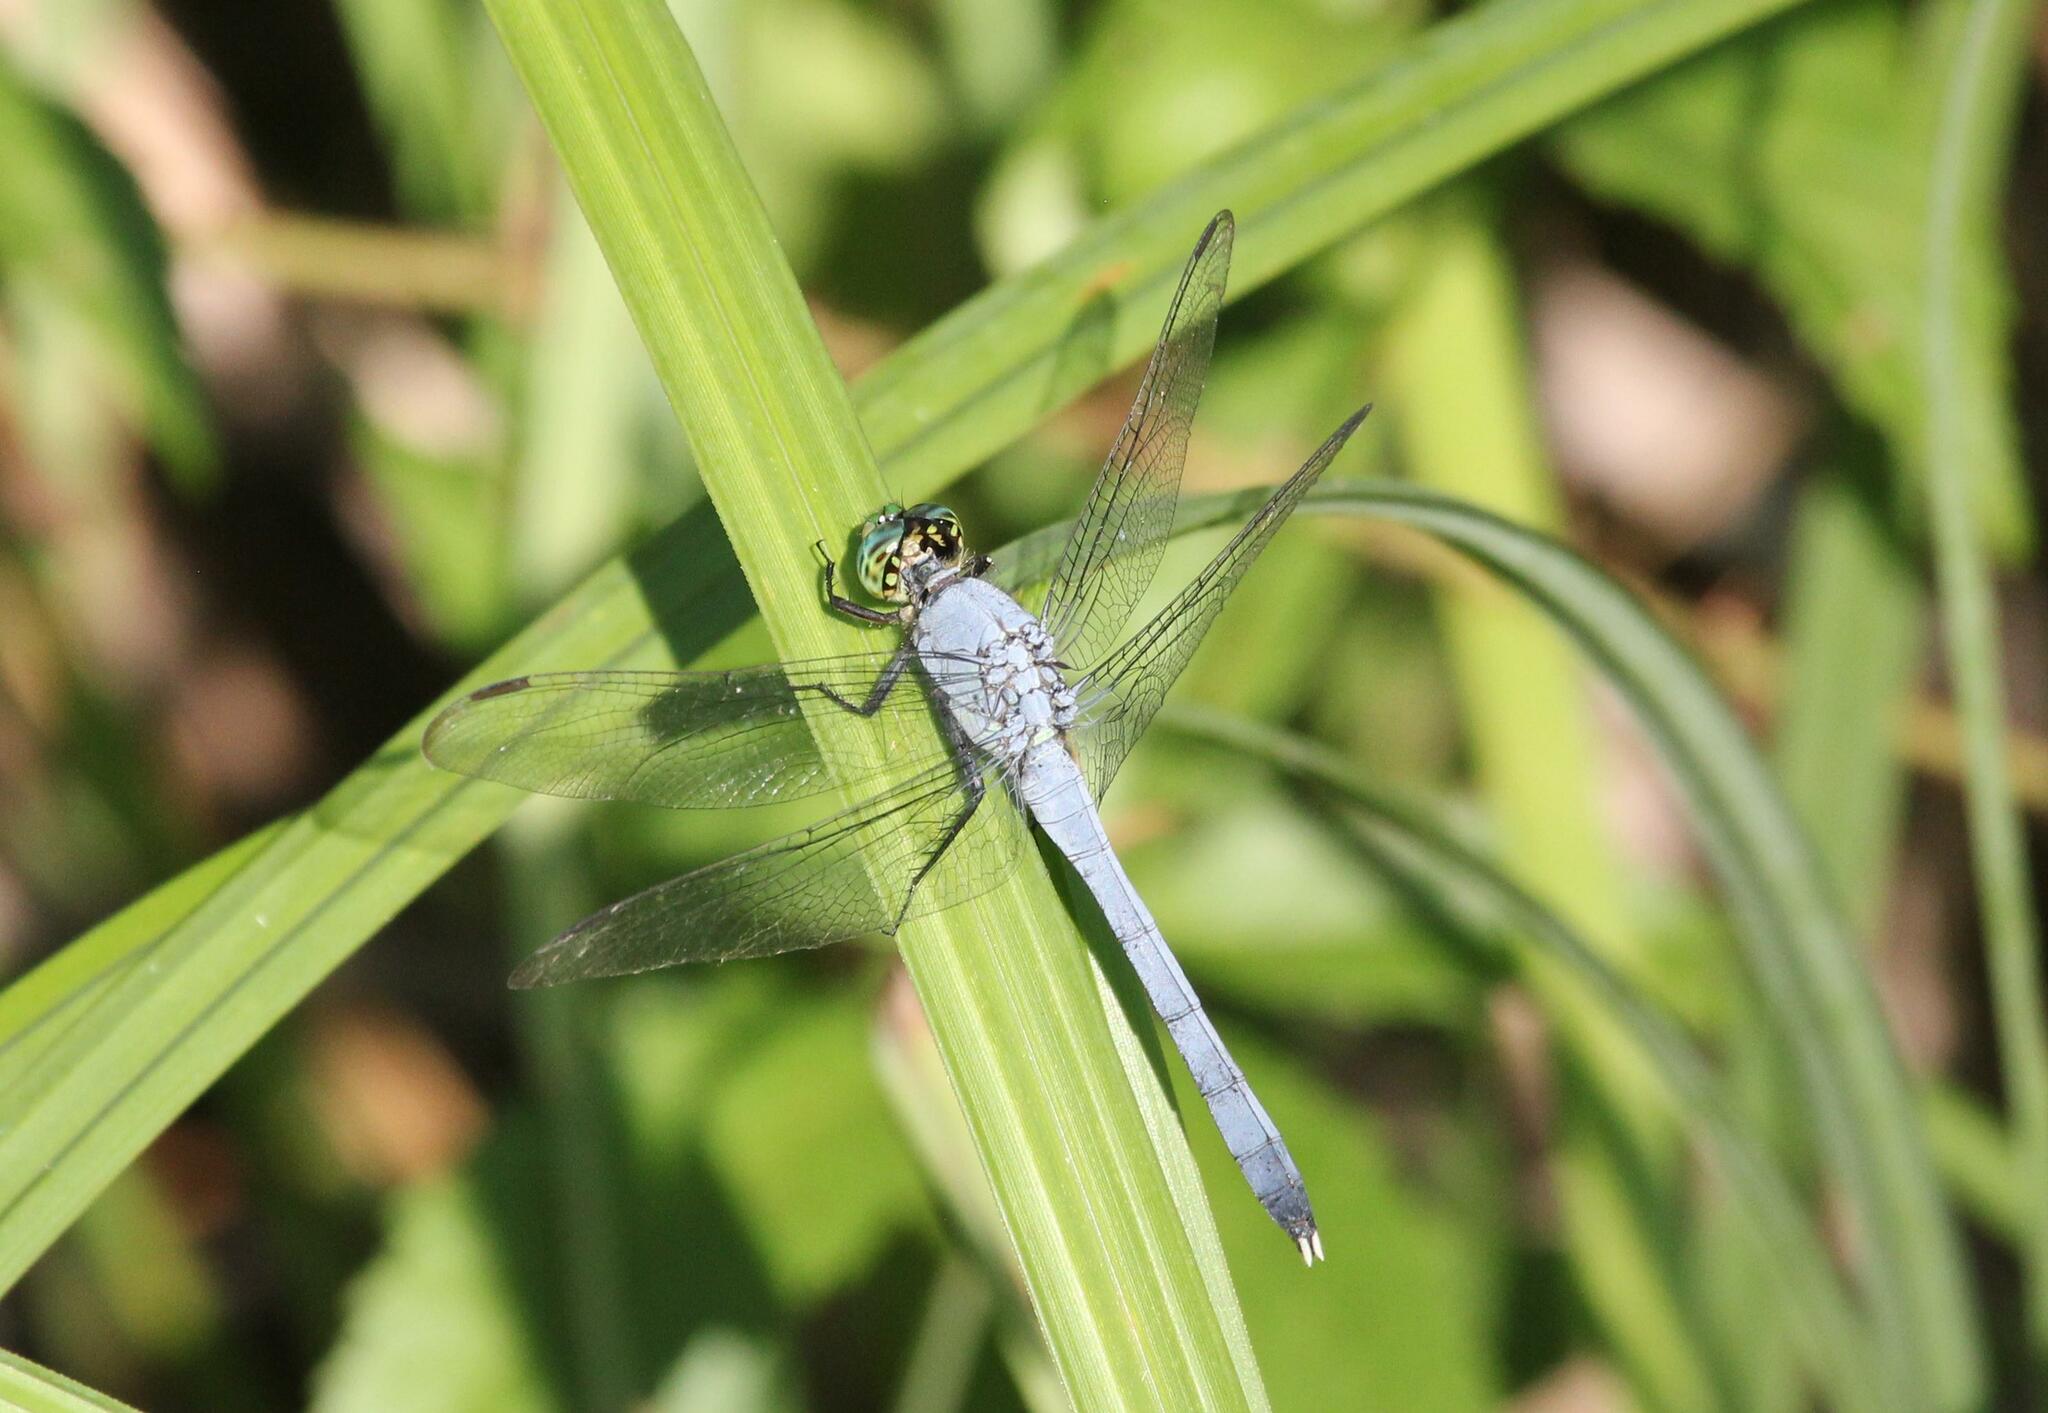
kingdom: Animalia
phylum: Arthropoda
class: Insecta
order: Odonata
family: Libellulidae
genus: Erythemis
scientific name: Erythemis simplicicollis
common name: Eastern pondhawk
